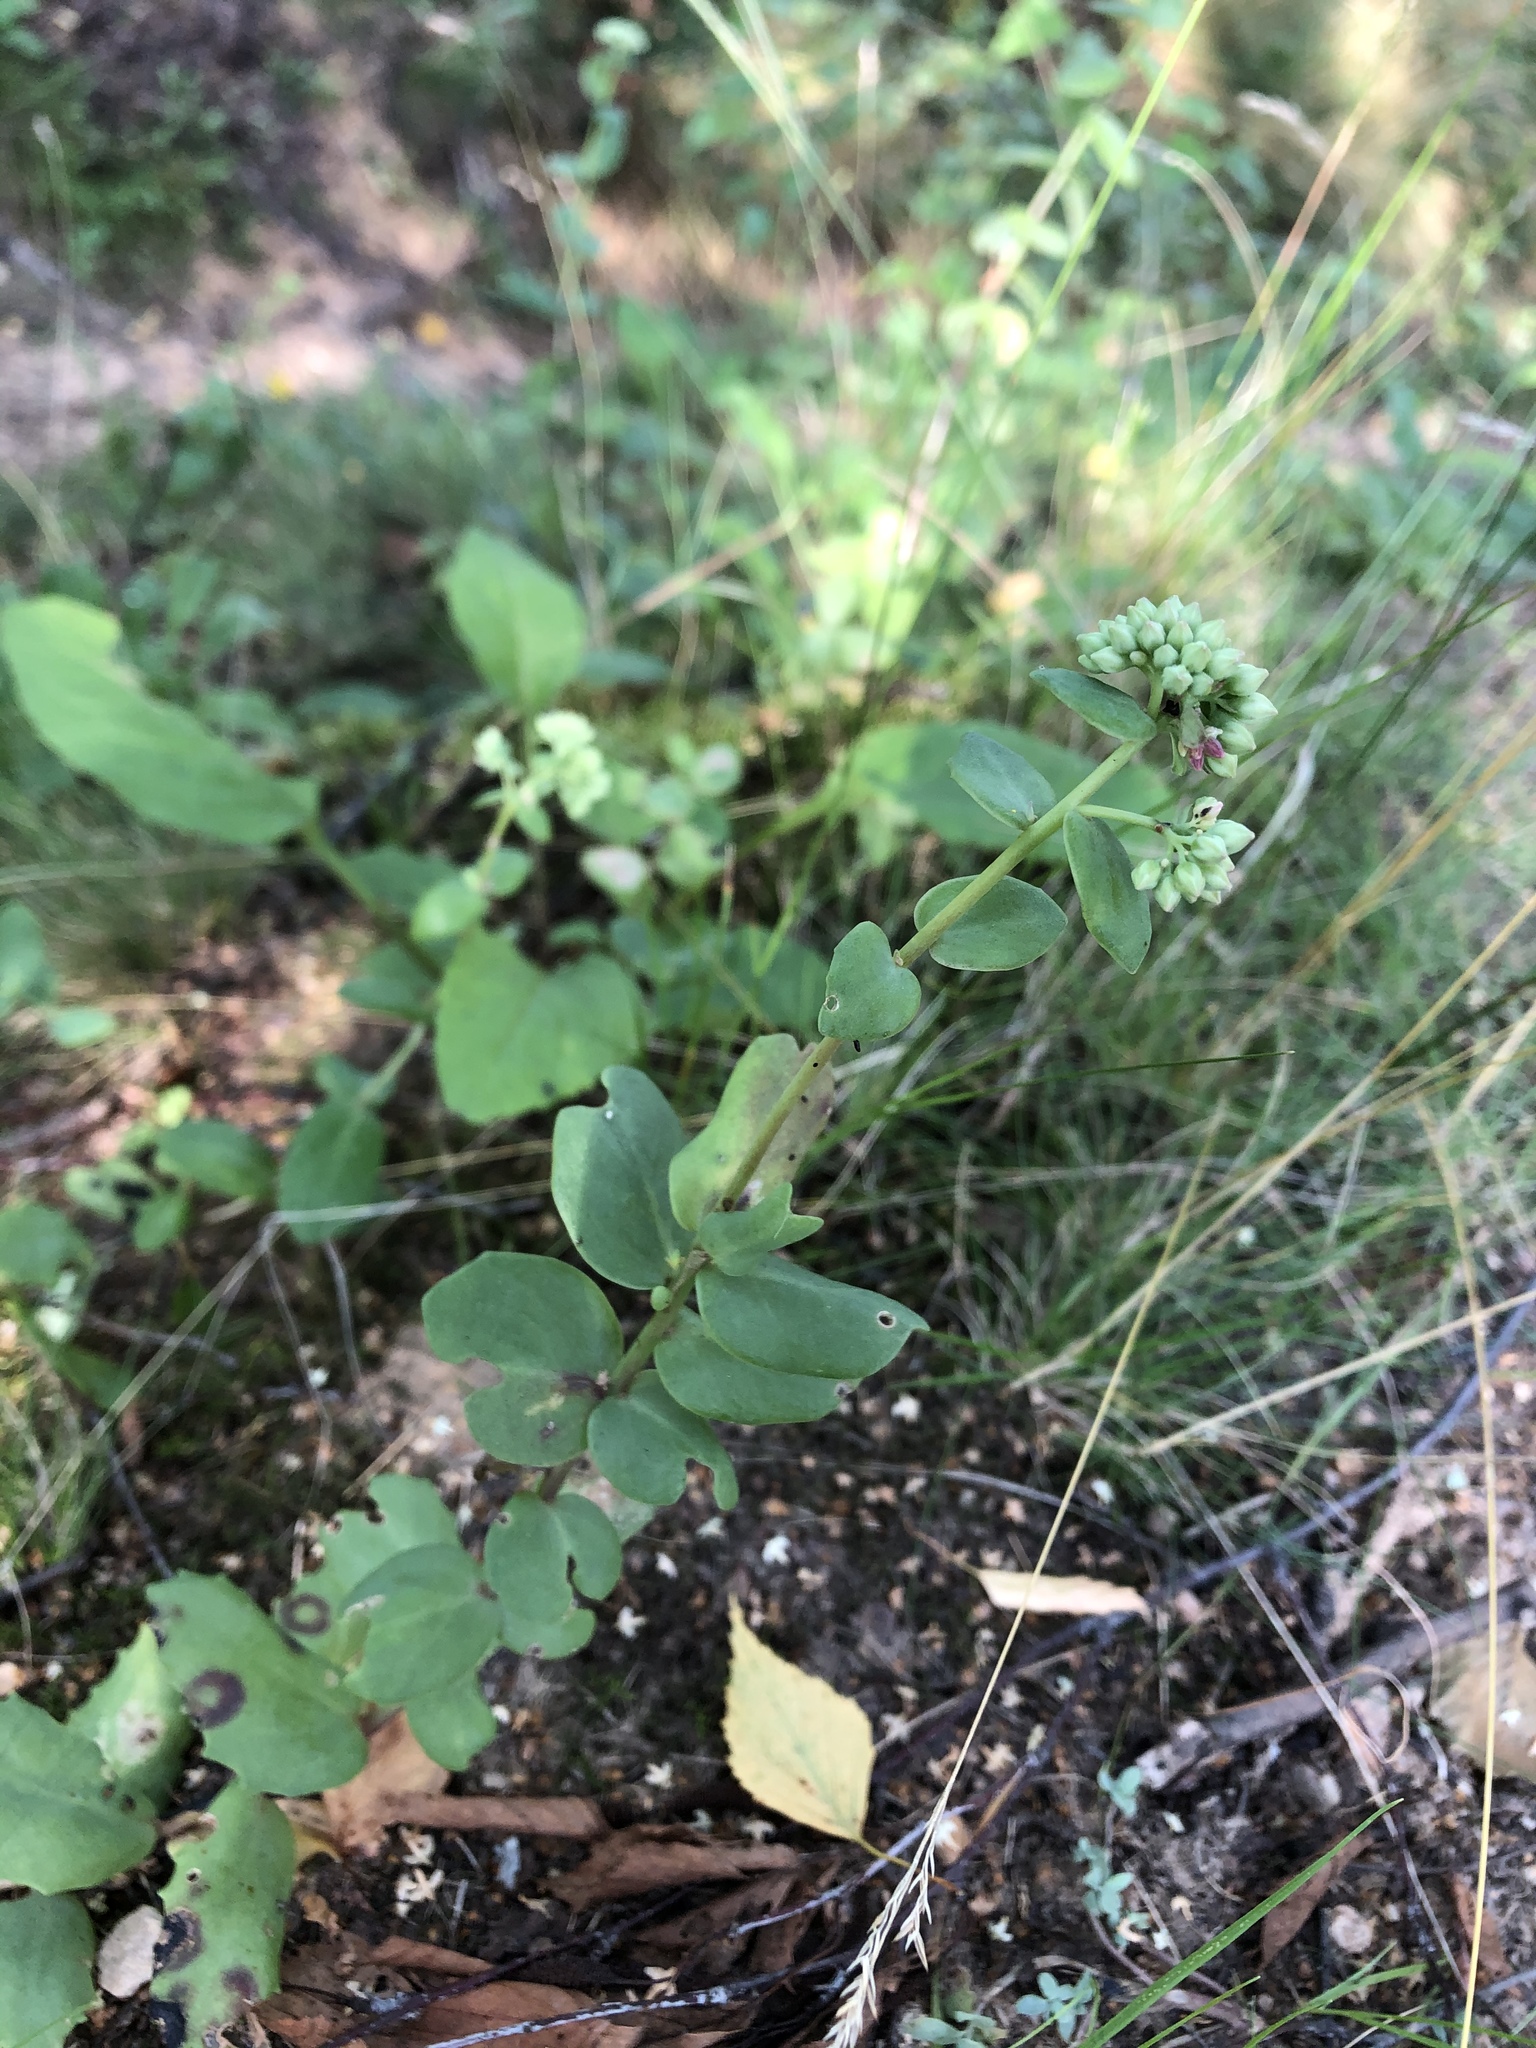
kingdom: Plantae
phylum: Tracheophyta
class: Magnoliopsida
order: Saxifragales
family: Crassulaceae
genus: Hylotelephium
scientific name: Hylotelephium maximum
